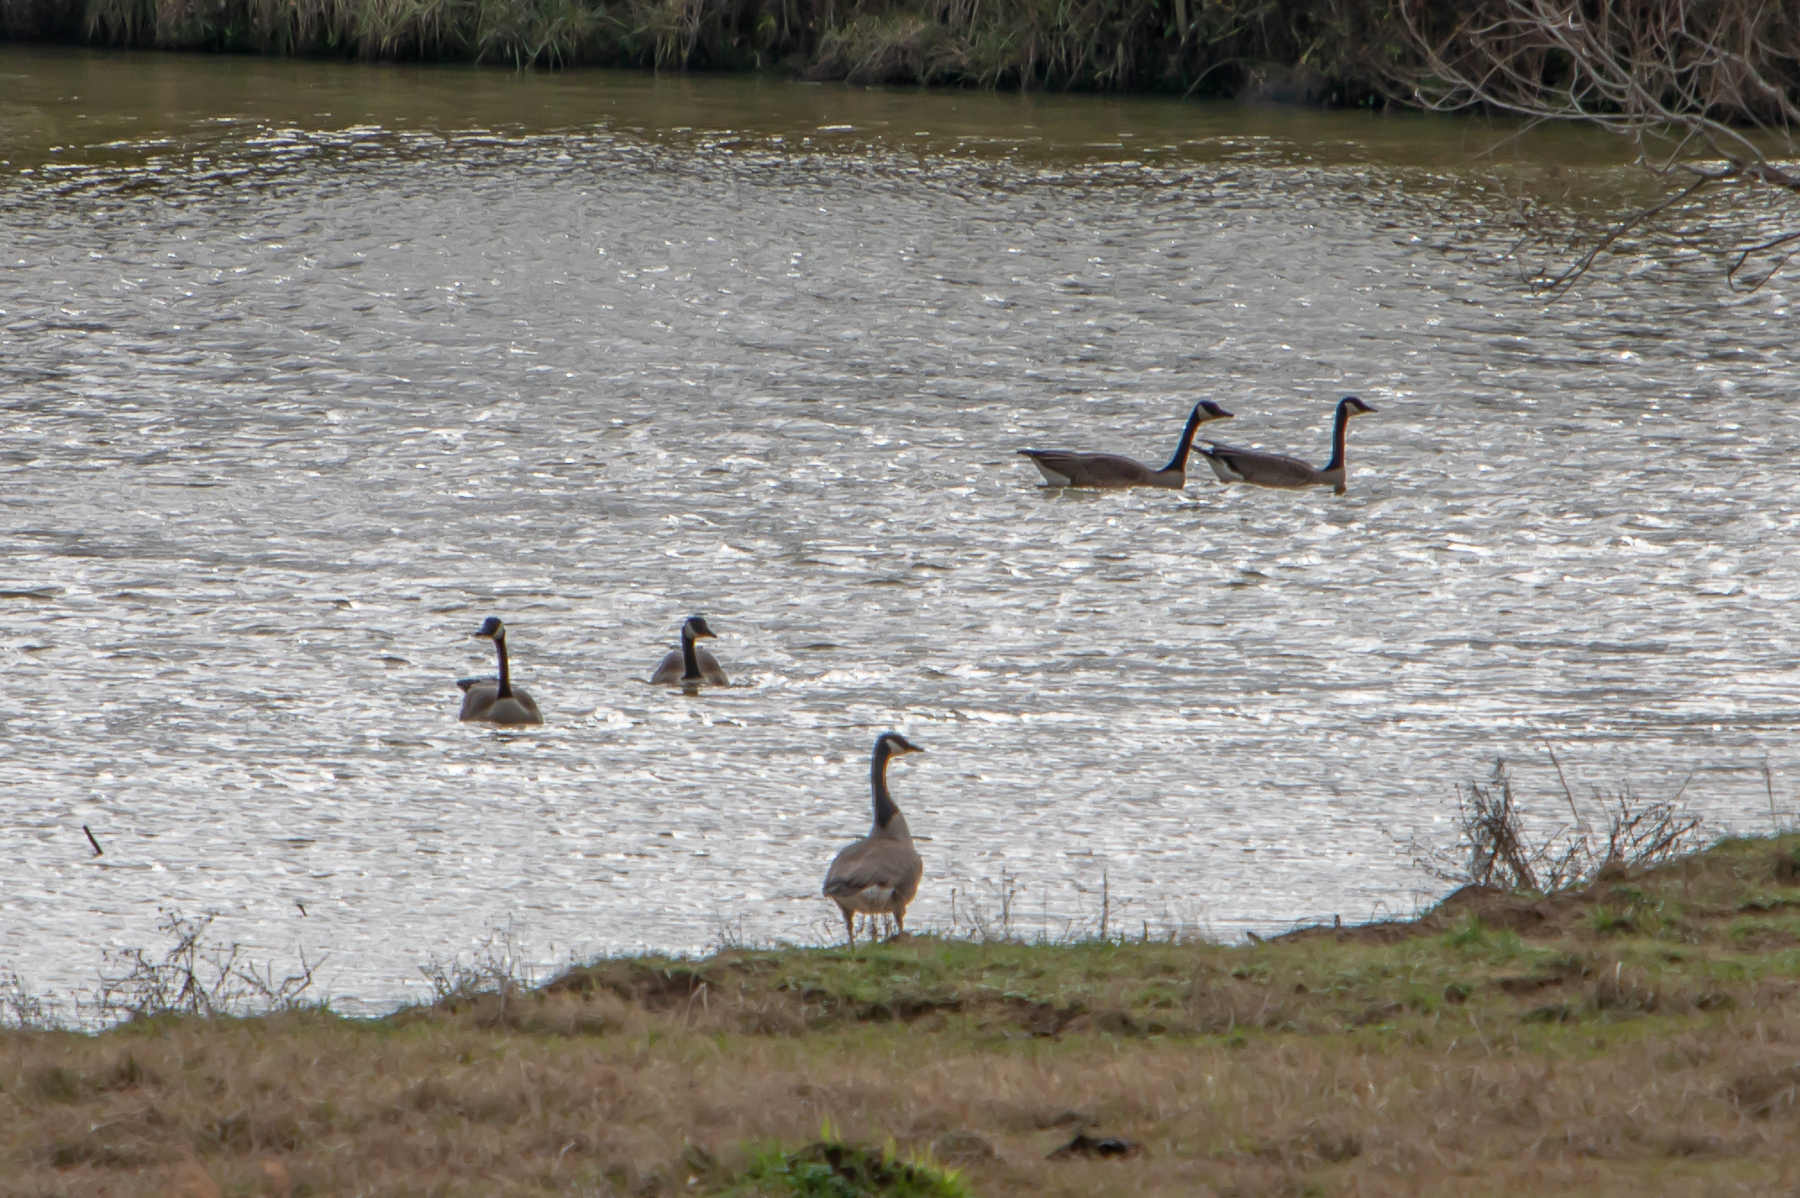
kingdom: Animalia
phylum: Chordata
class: Aves
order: Anseriformes
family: Anatidae
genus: Branta
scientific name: Branta canadensis
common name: Canada goose
